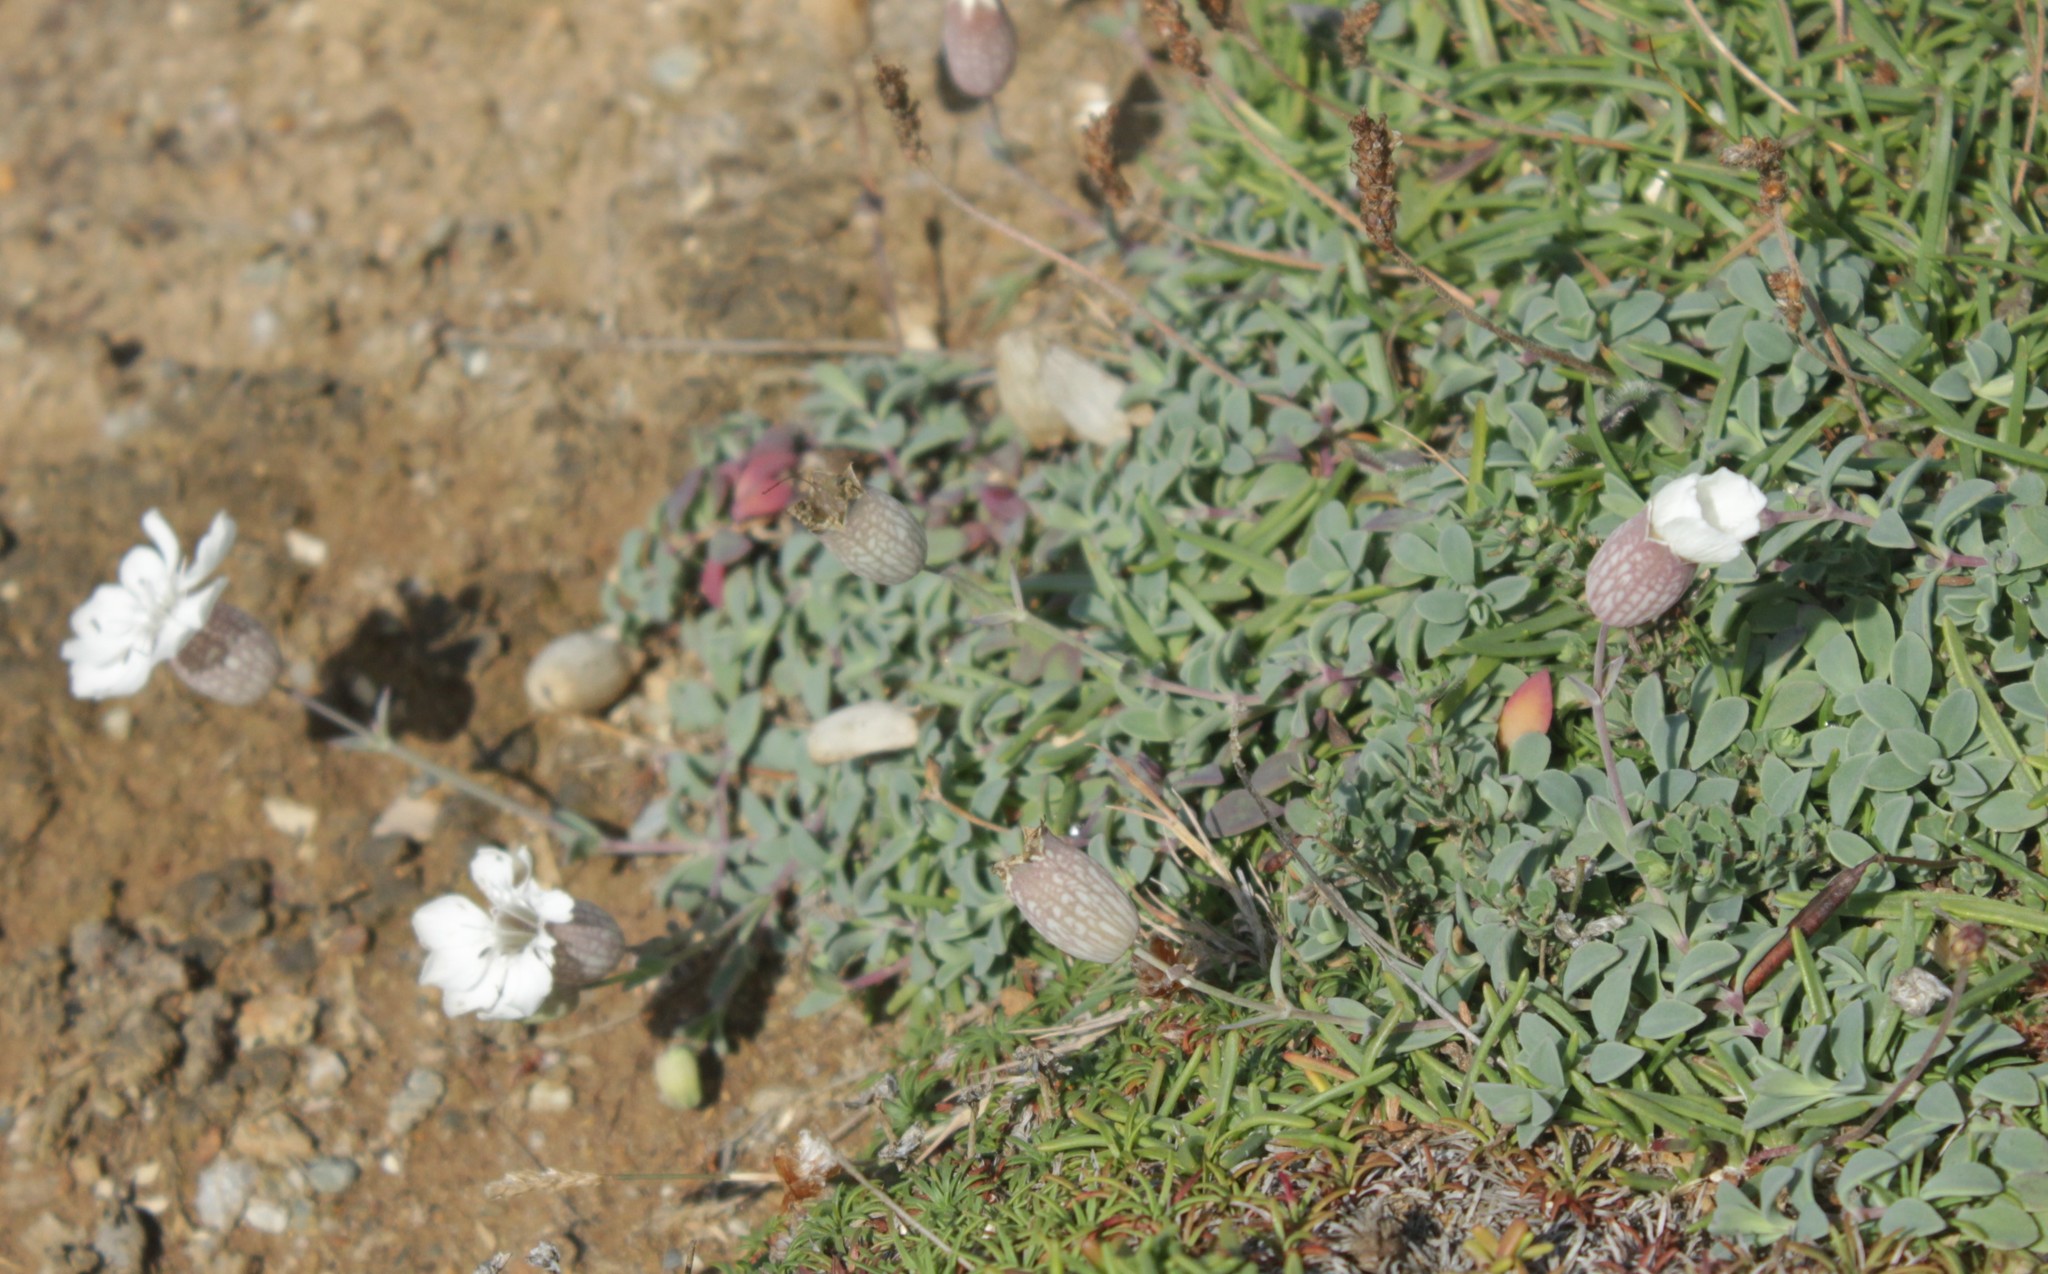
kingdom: Plantae
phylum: Tracheophyta
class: Magnoliopsida
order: Caryophyllales
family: Caryophyllaceae
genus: Silene
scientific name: Silene uniflora
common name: Sea campion
